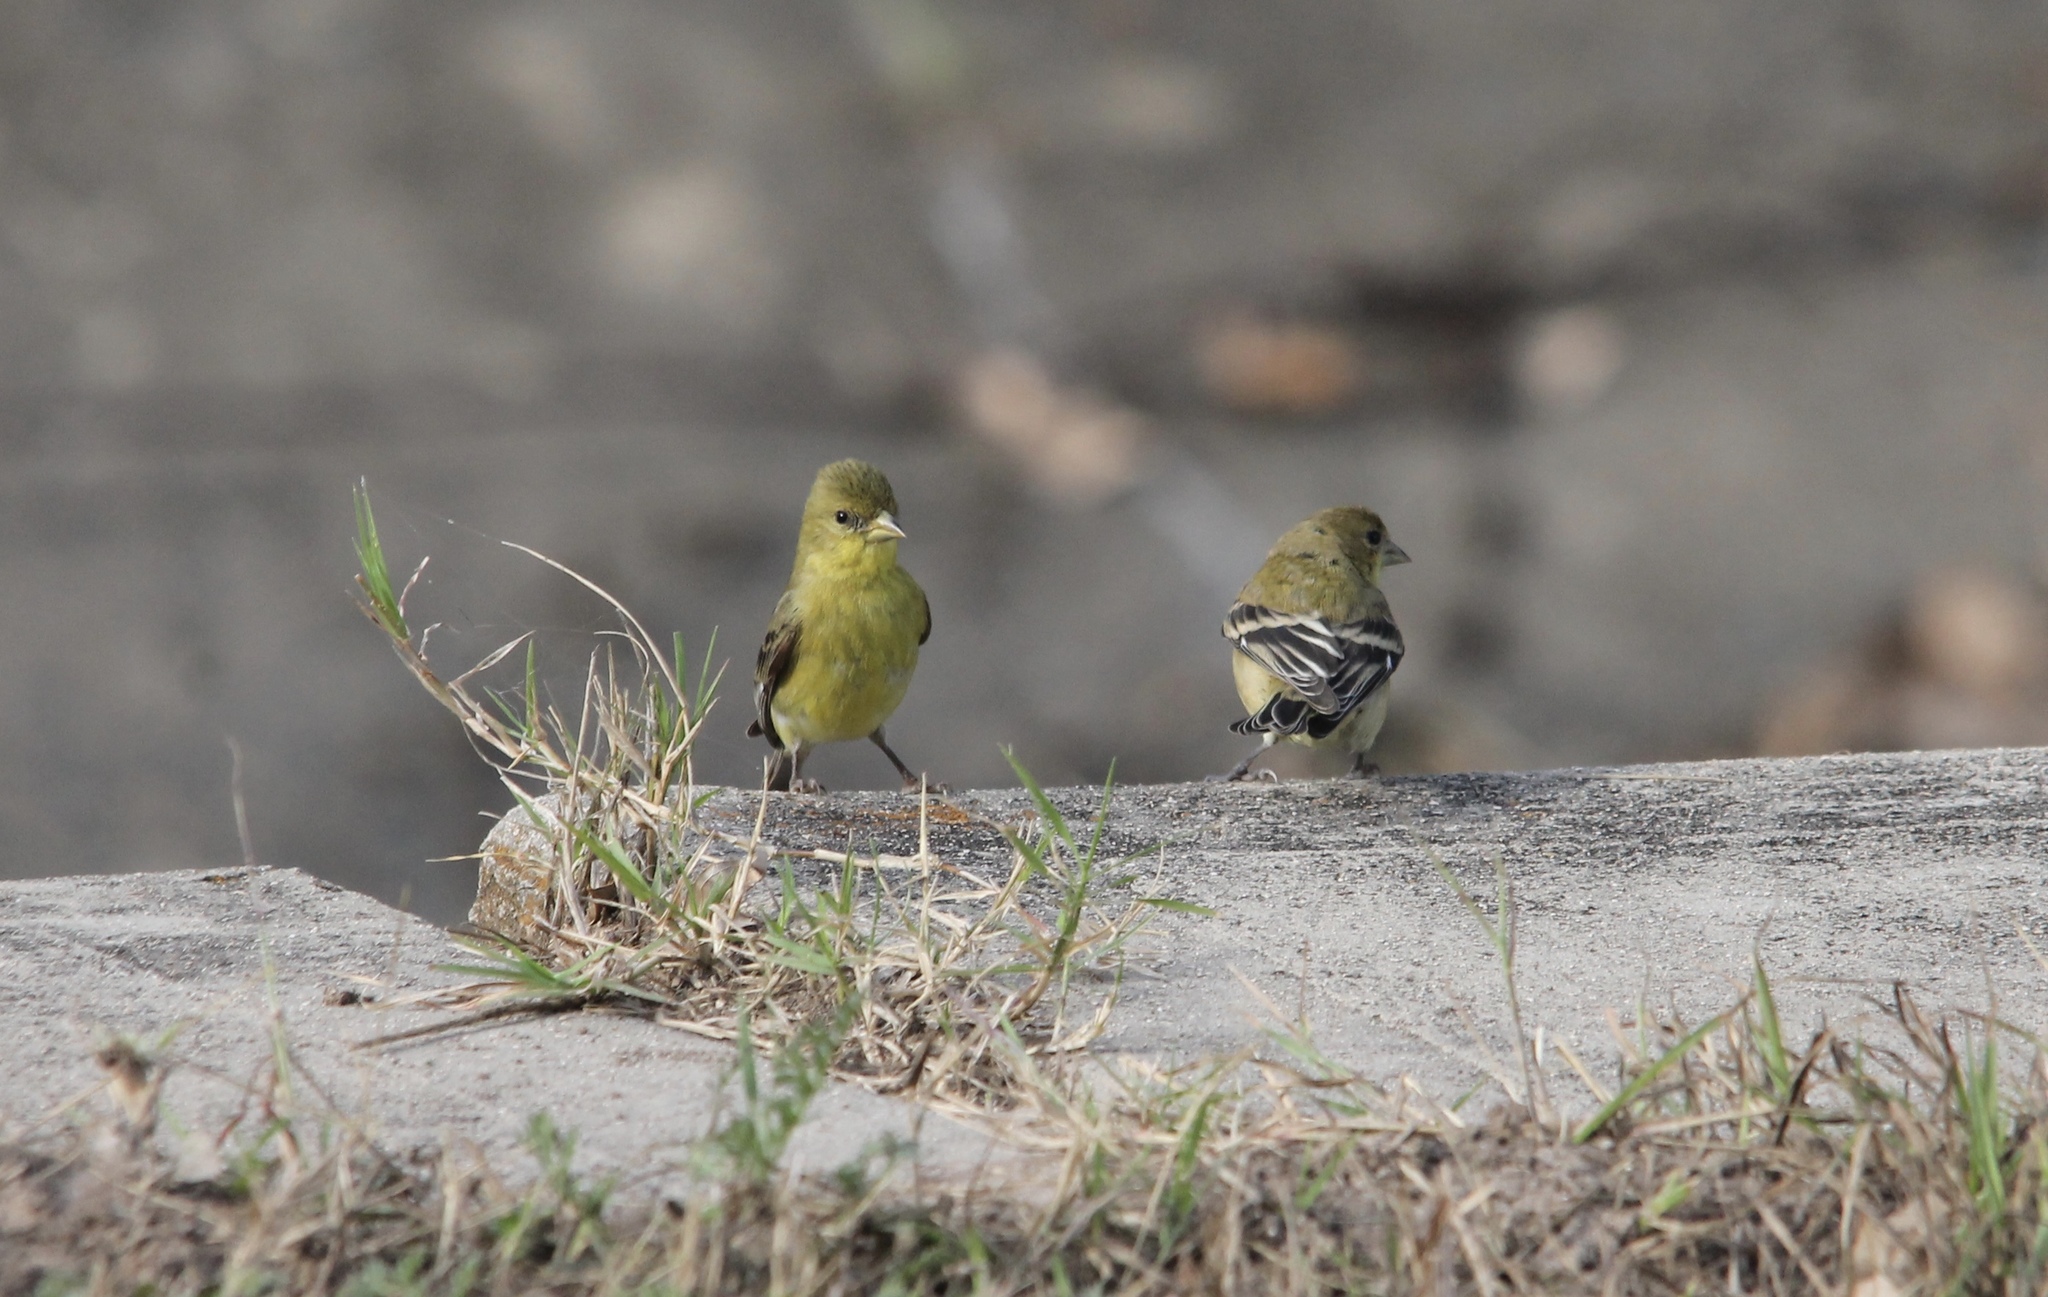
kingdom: Animalia
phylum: Chordata
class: Aves
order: Passeriformes
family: Fringillidae
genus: Spinus
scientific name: Spinus psaltria
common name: Lesser goldfinch
